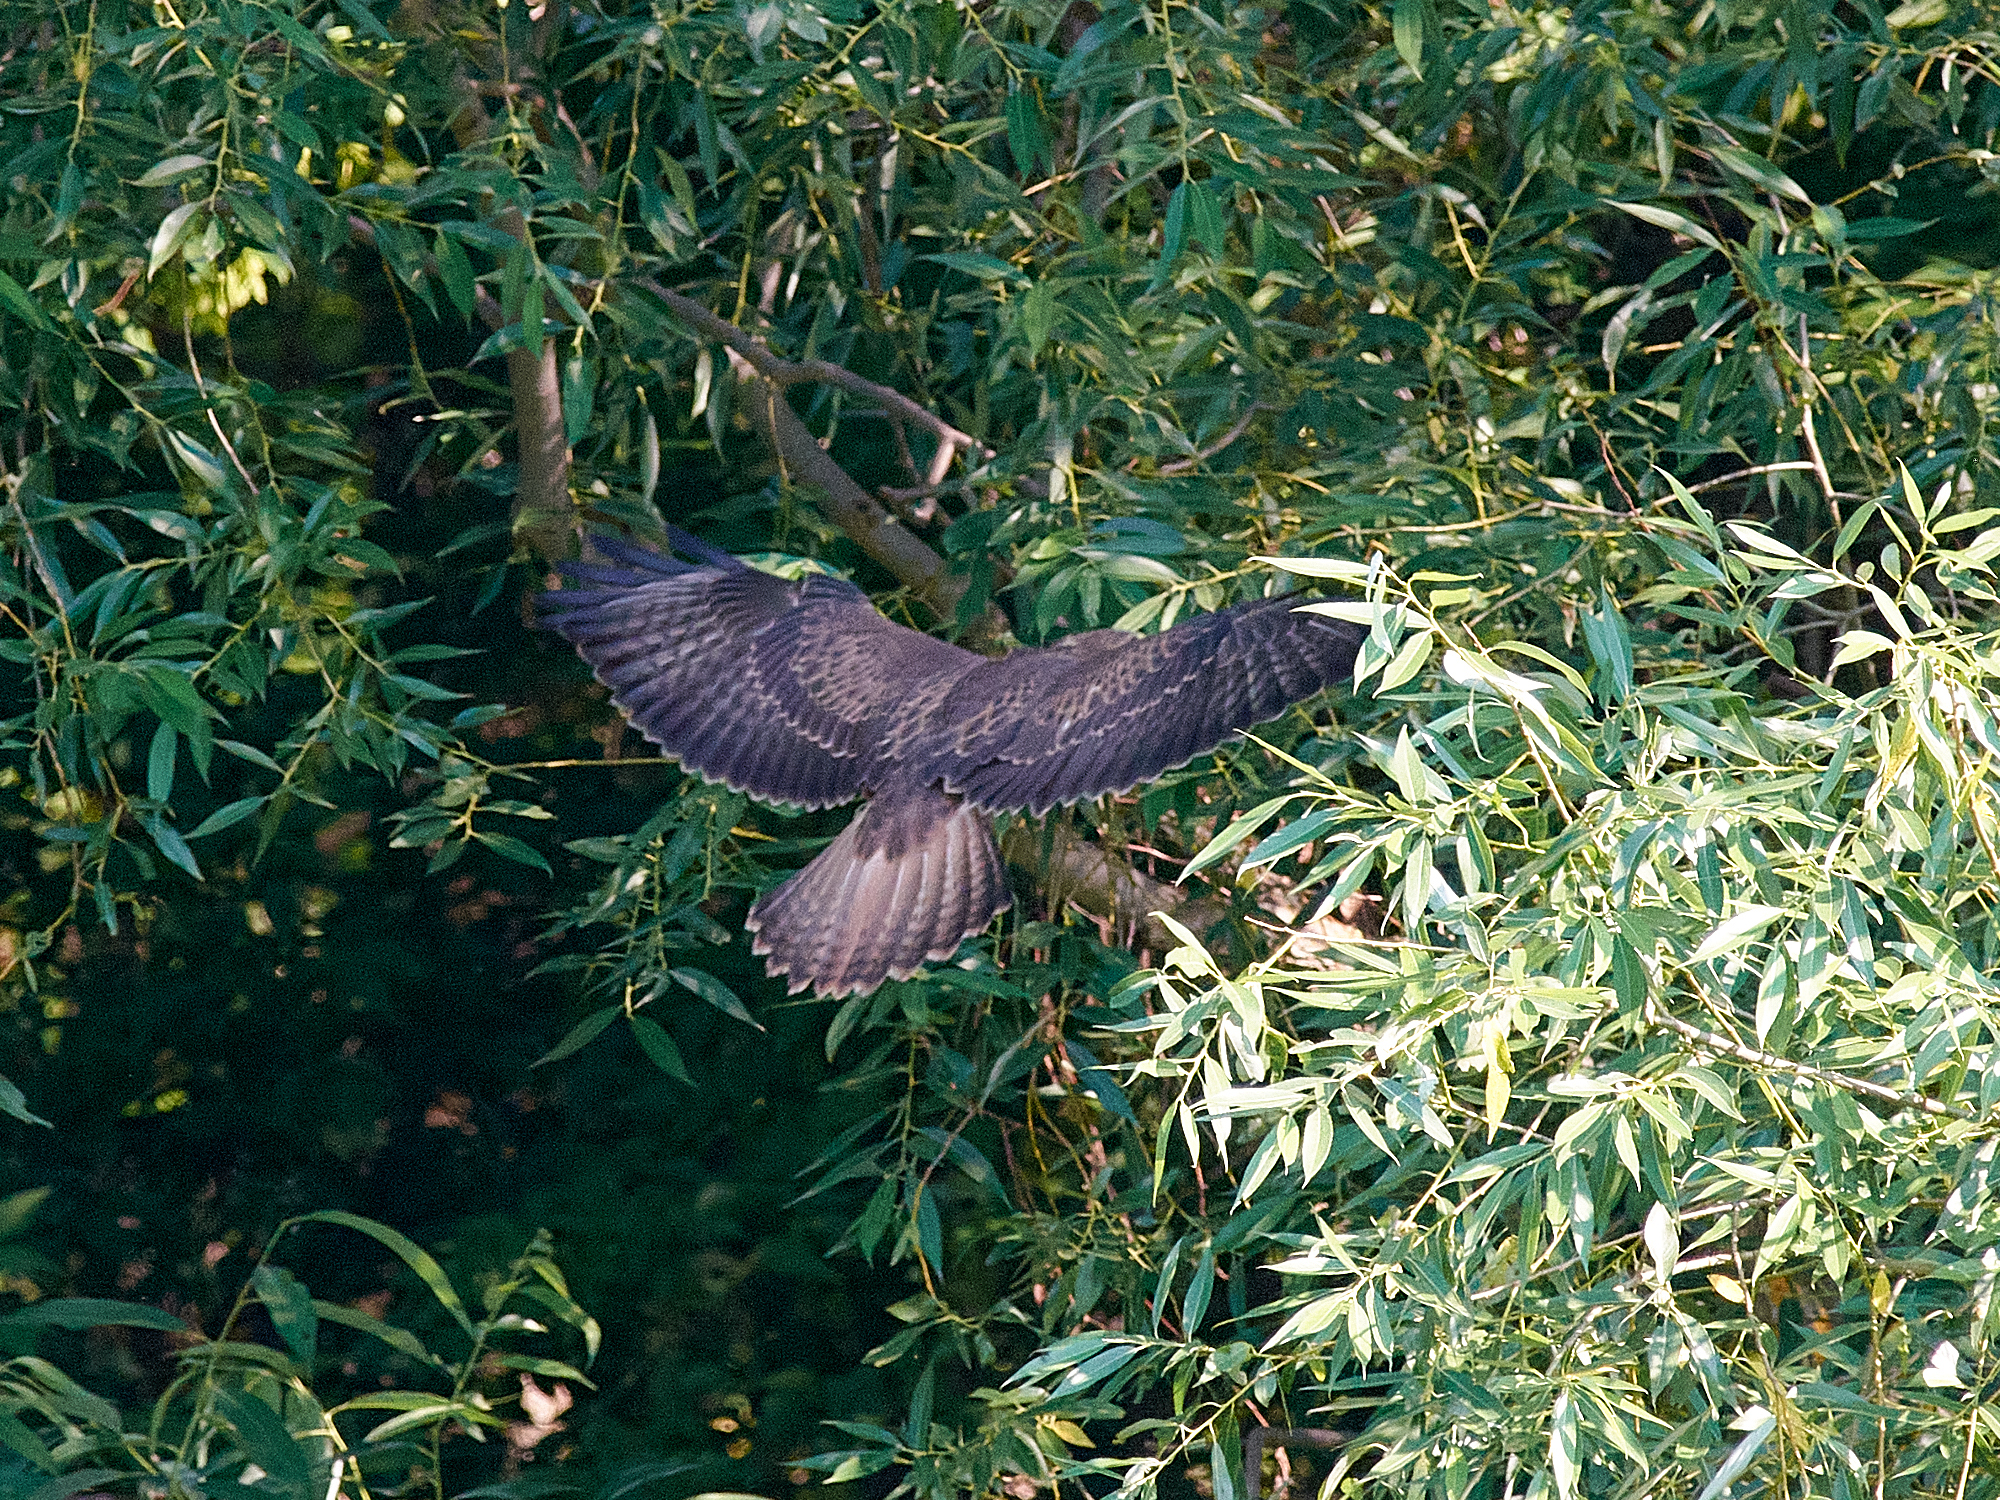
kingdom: Animalia
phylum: Chordata
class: Aves
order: Accipitriformes
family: Accipitridae
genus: Buteo
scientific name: Buteo buteo
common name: Common buzzard
